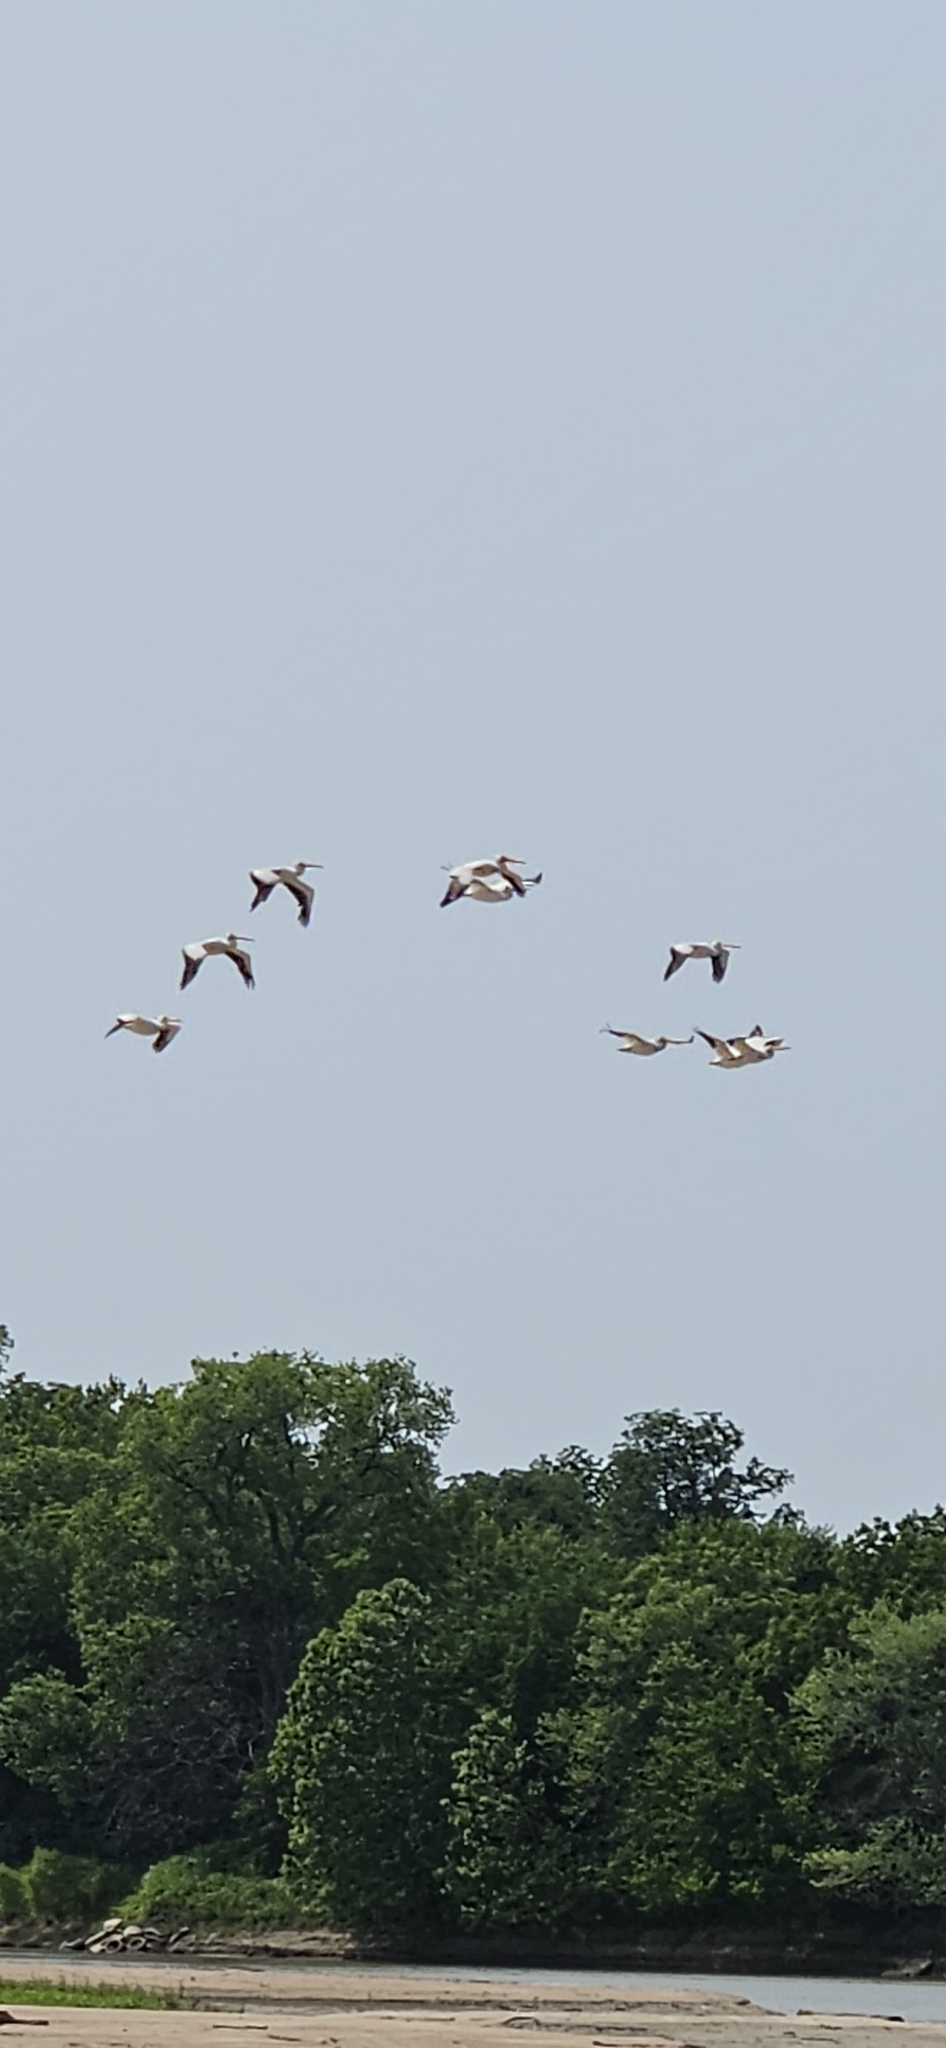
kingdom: Animalia
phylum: Chordata
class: Aves
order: Pelecaniformes
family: Pelecanidae
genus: Pelecanus
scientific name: Pelecanus erythrorhynchos
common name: American white pelican
